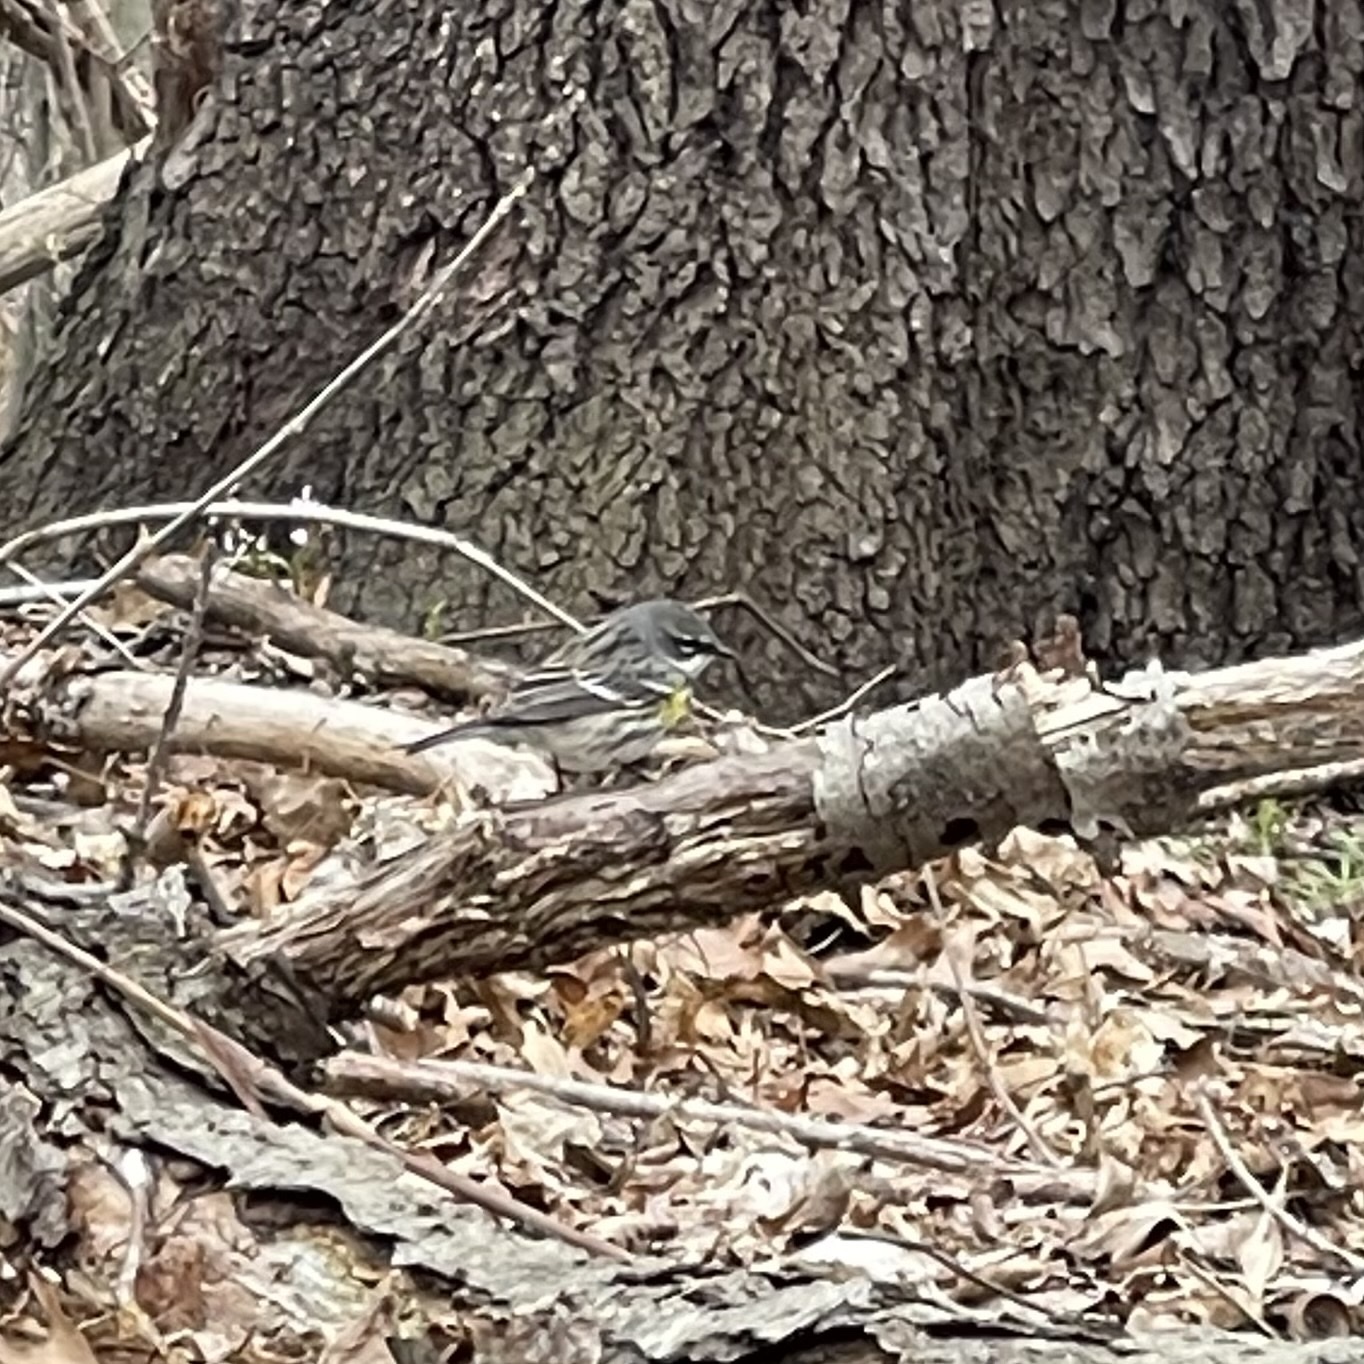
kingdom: Animalia
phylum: Chordata
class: Aves
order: Passeriformes
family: Parulidae
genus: Setophaga
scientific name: Setophaga coronata
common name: Myrtle warbler
